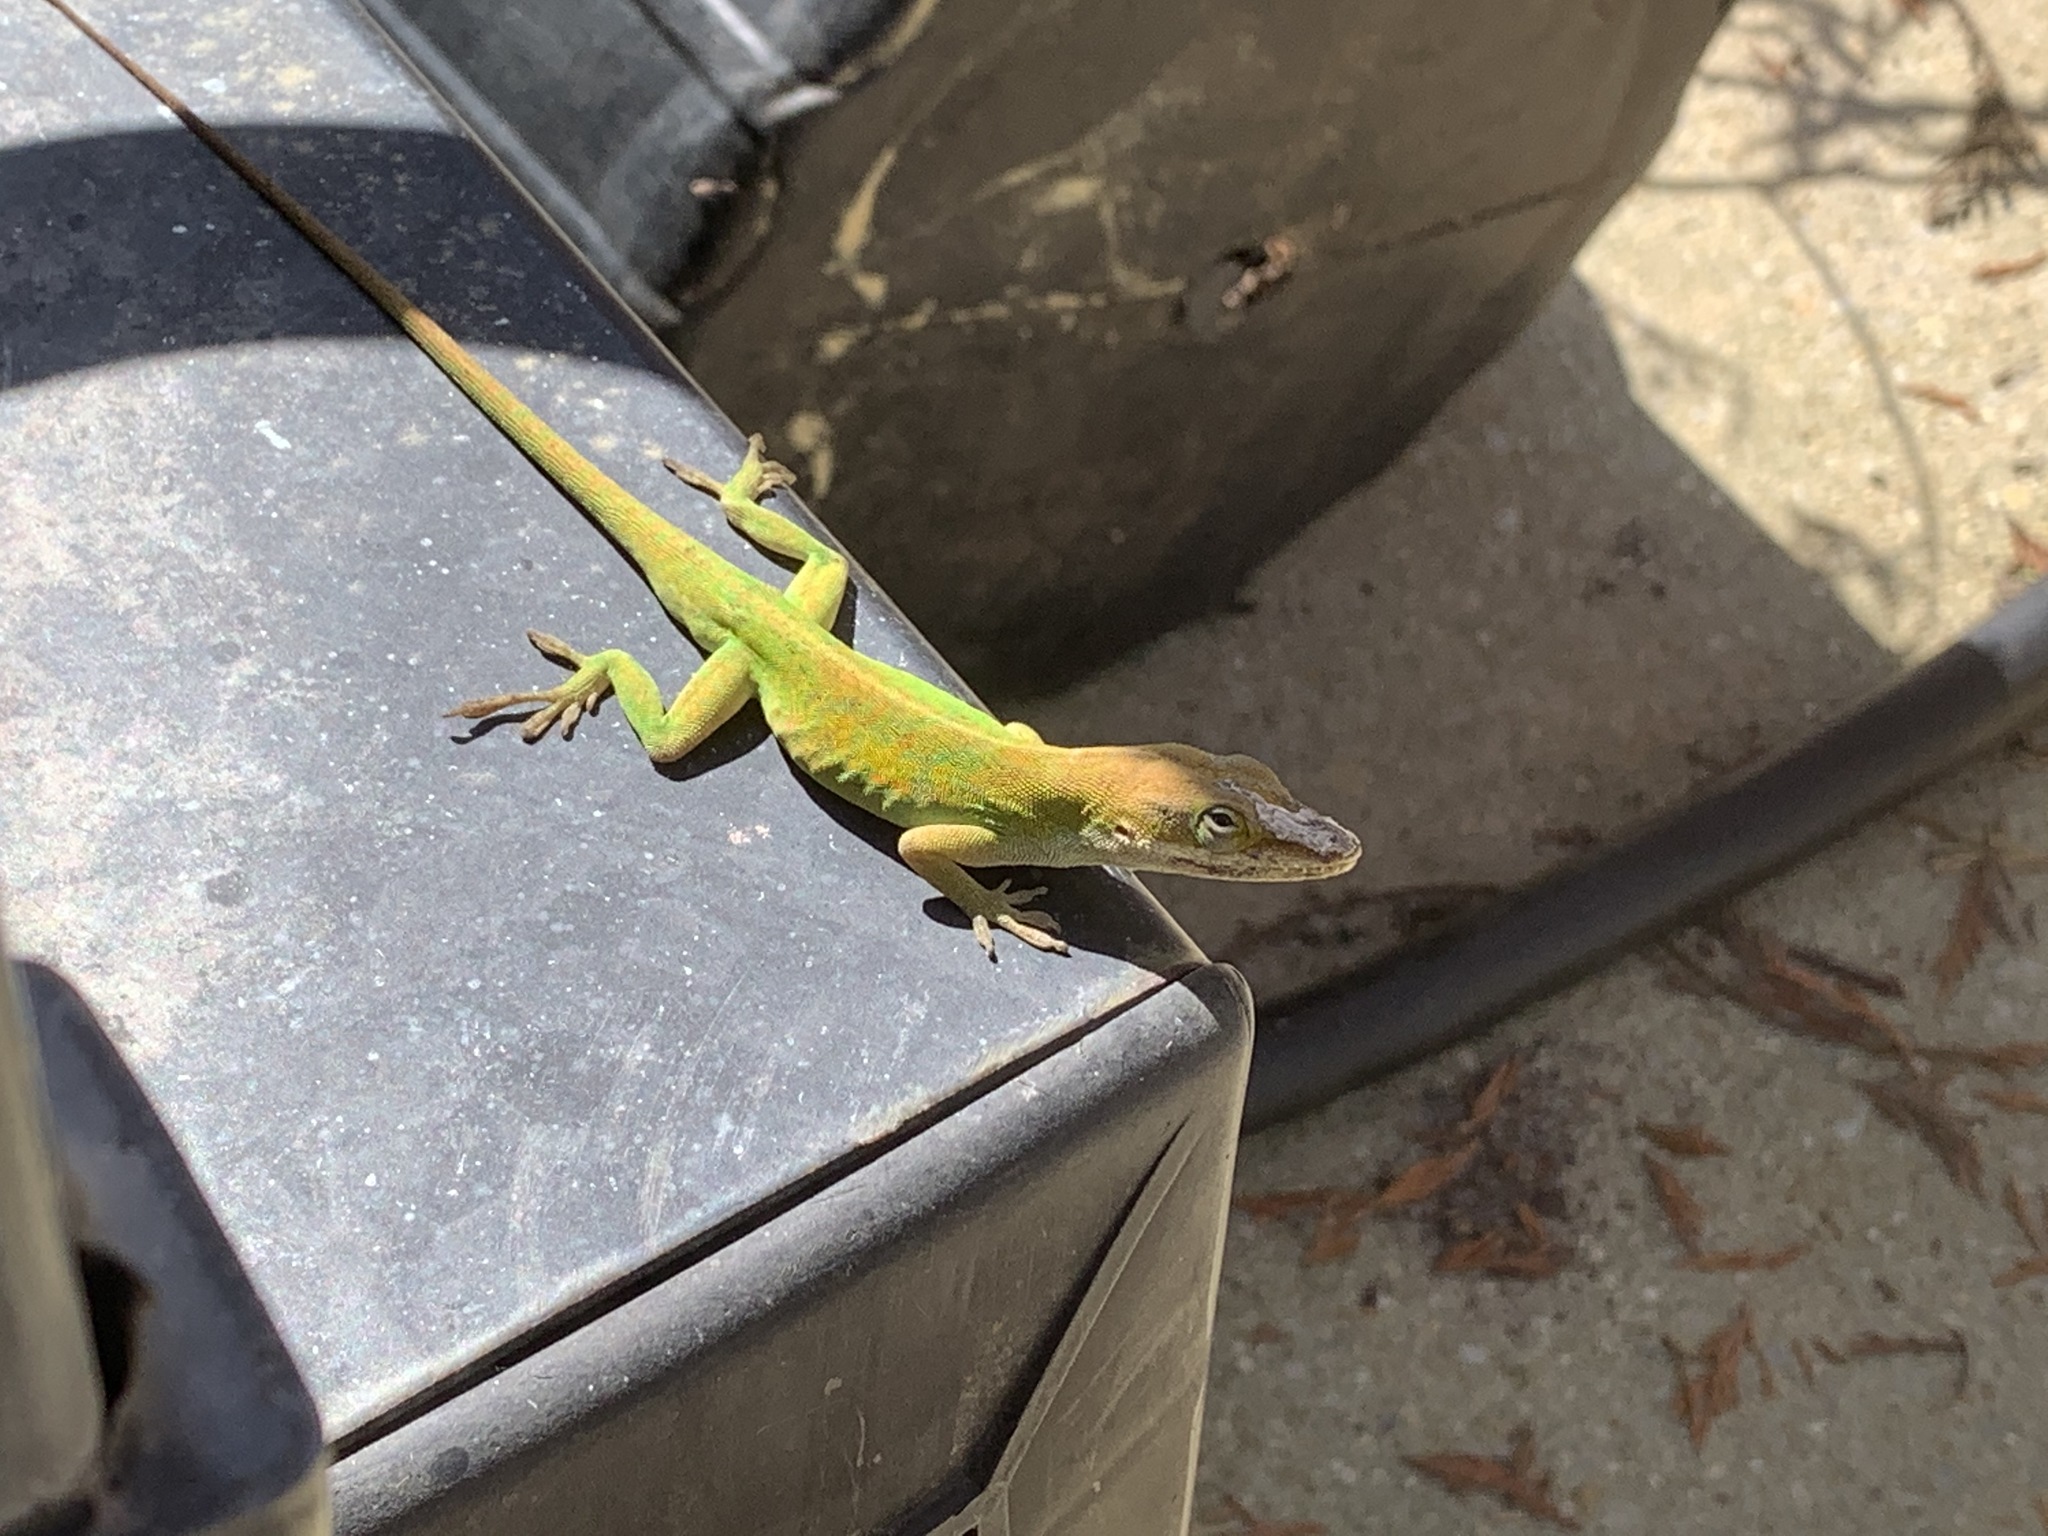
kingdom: Animalia
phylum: Chordata
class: Squamata
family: Dactyloidae
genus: Anolis
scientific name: Anolis carolinensis
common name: Green anole
